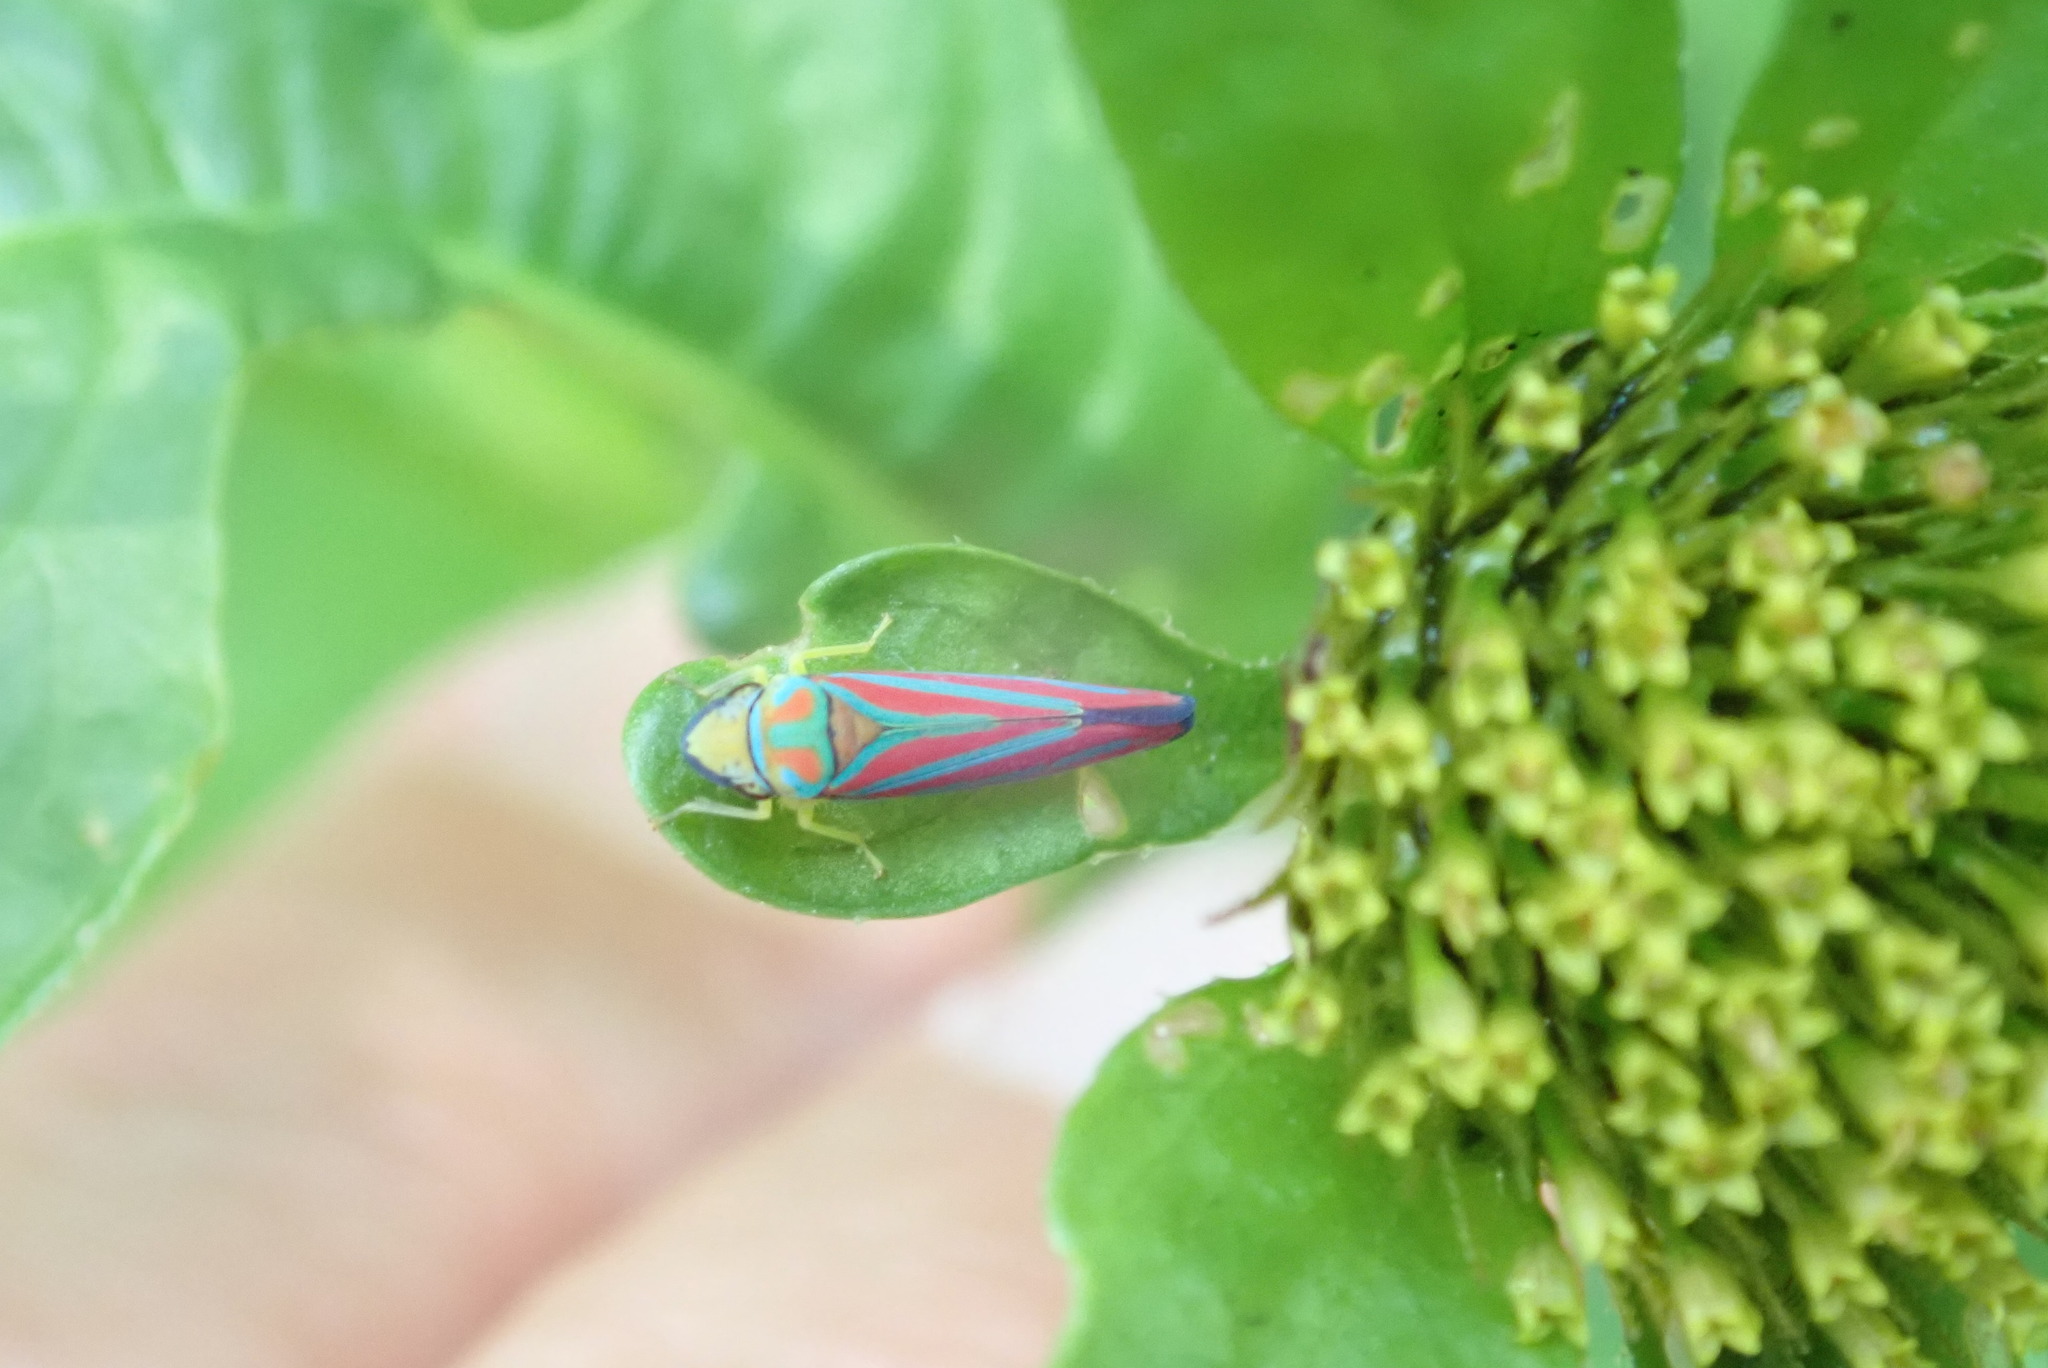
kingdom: Animalia
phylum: Arthropoda
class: Insecta
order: Hemiptera
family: Cicadellidae
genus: Graphocephala
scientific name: Graphocephala
